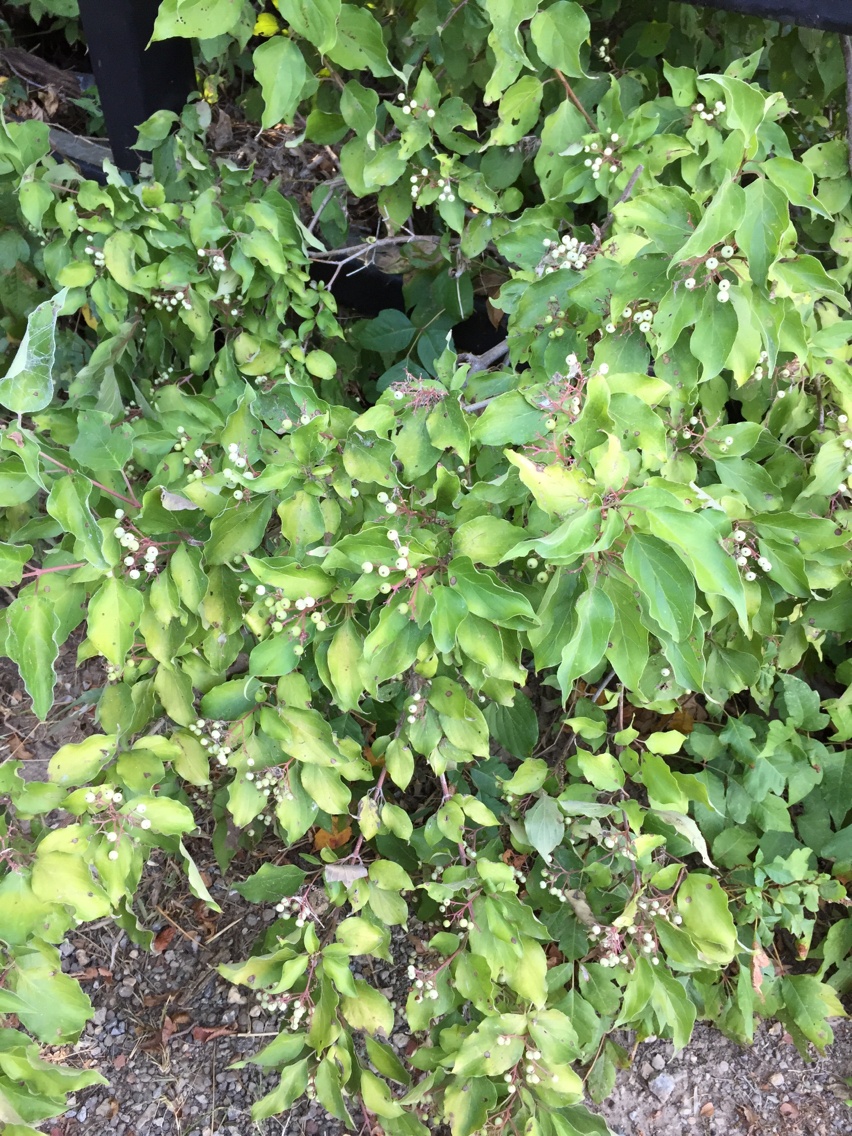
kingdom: Plantae
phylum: Tracheophyta
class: Magnoliopsida
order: Cornales
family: Cornaceae
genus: Cornus
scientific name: Cornus drummondii
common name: Rough-leaf dogwood
